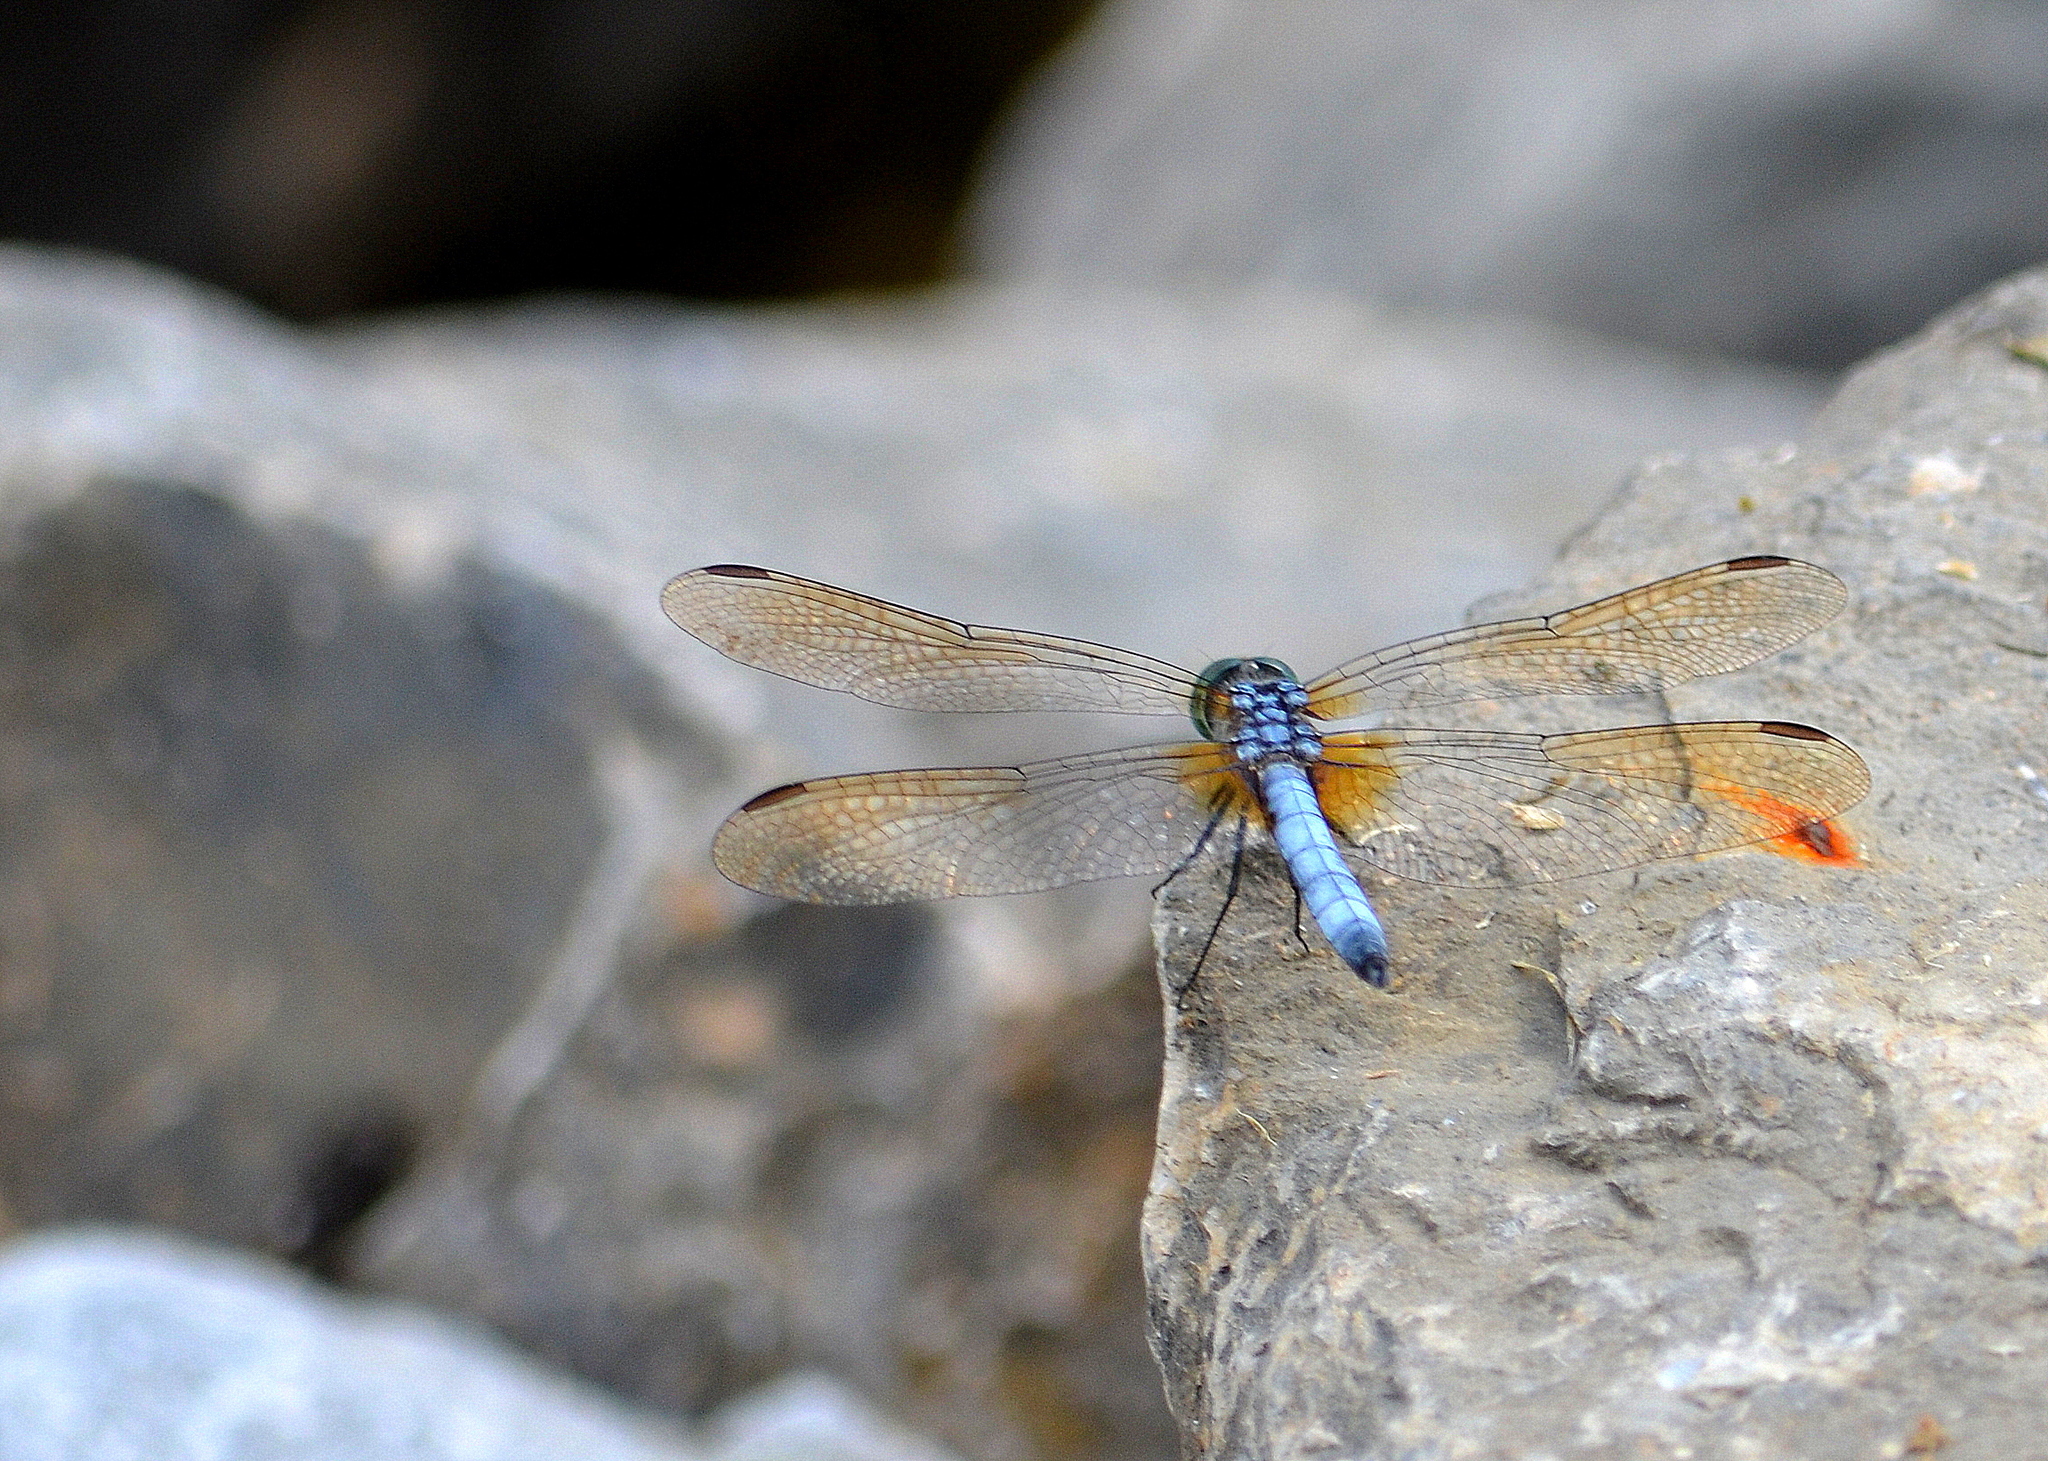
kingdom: Animalia
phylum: Arthropoda
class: Insecta
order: Odonata
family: Libellulidae
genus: Pachydiplax
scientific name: Pachydiplax longipennis
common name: Blue dasher
